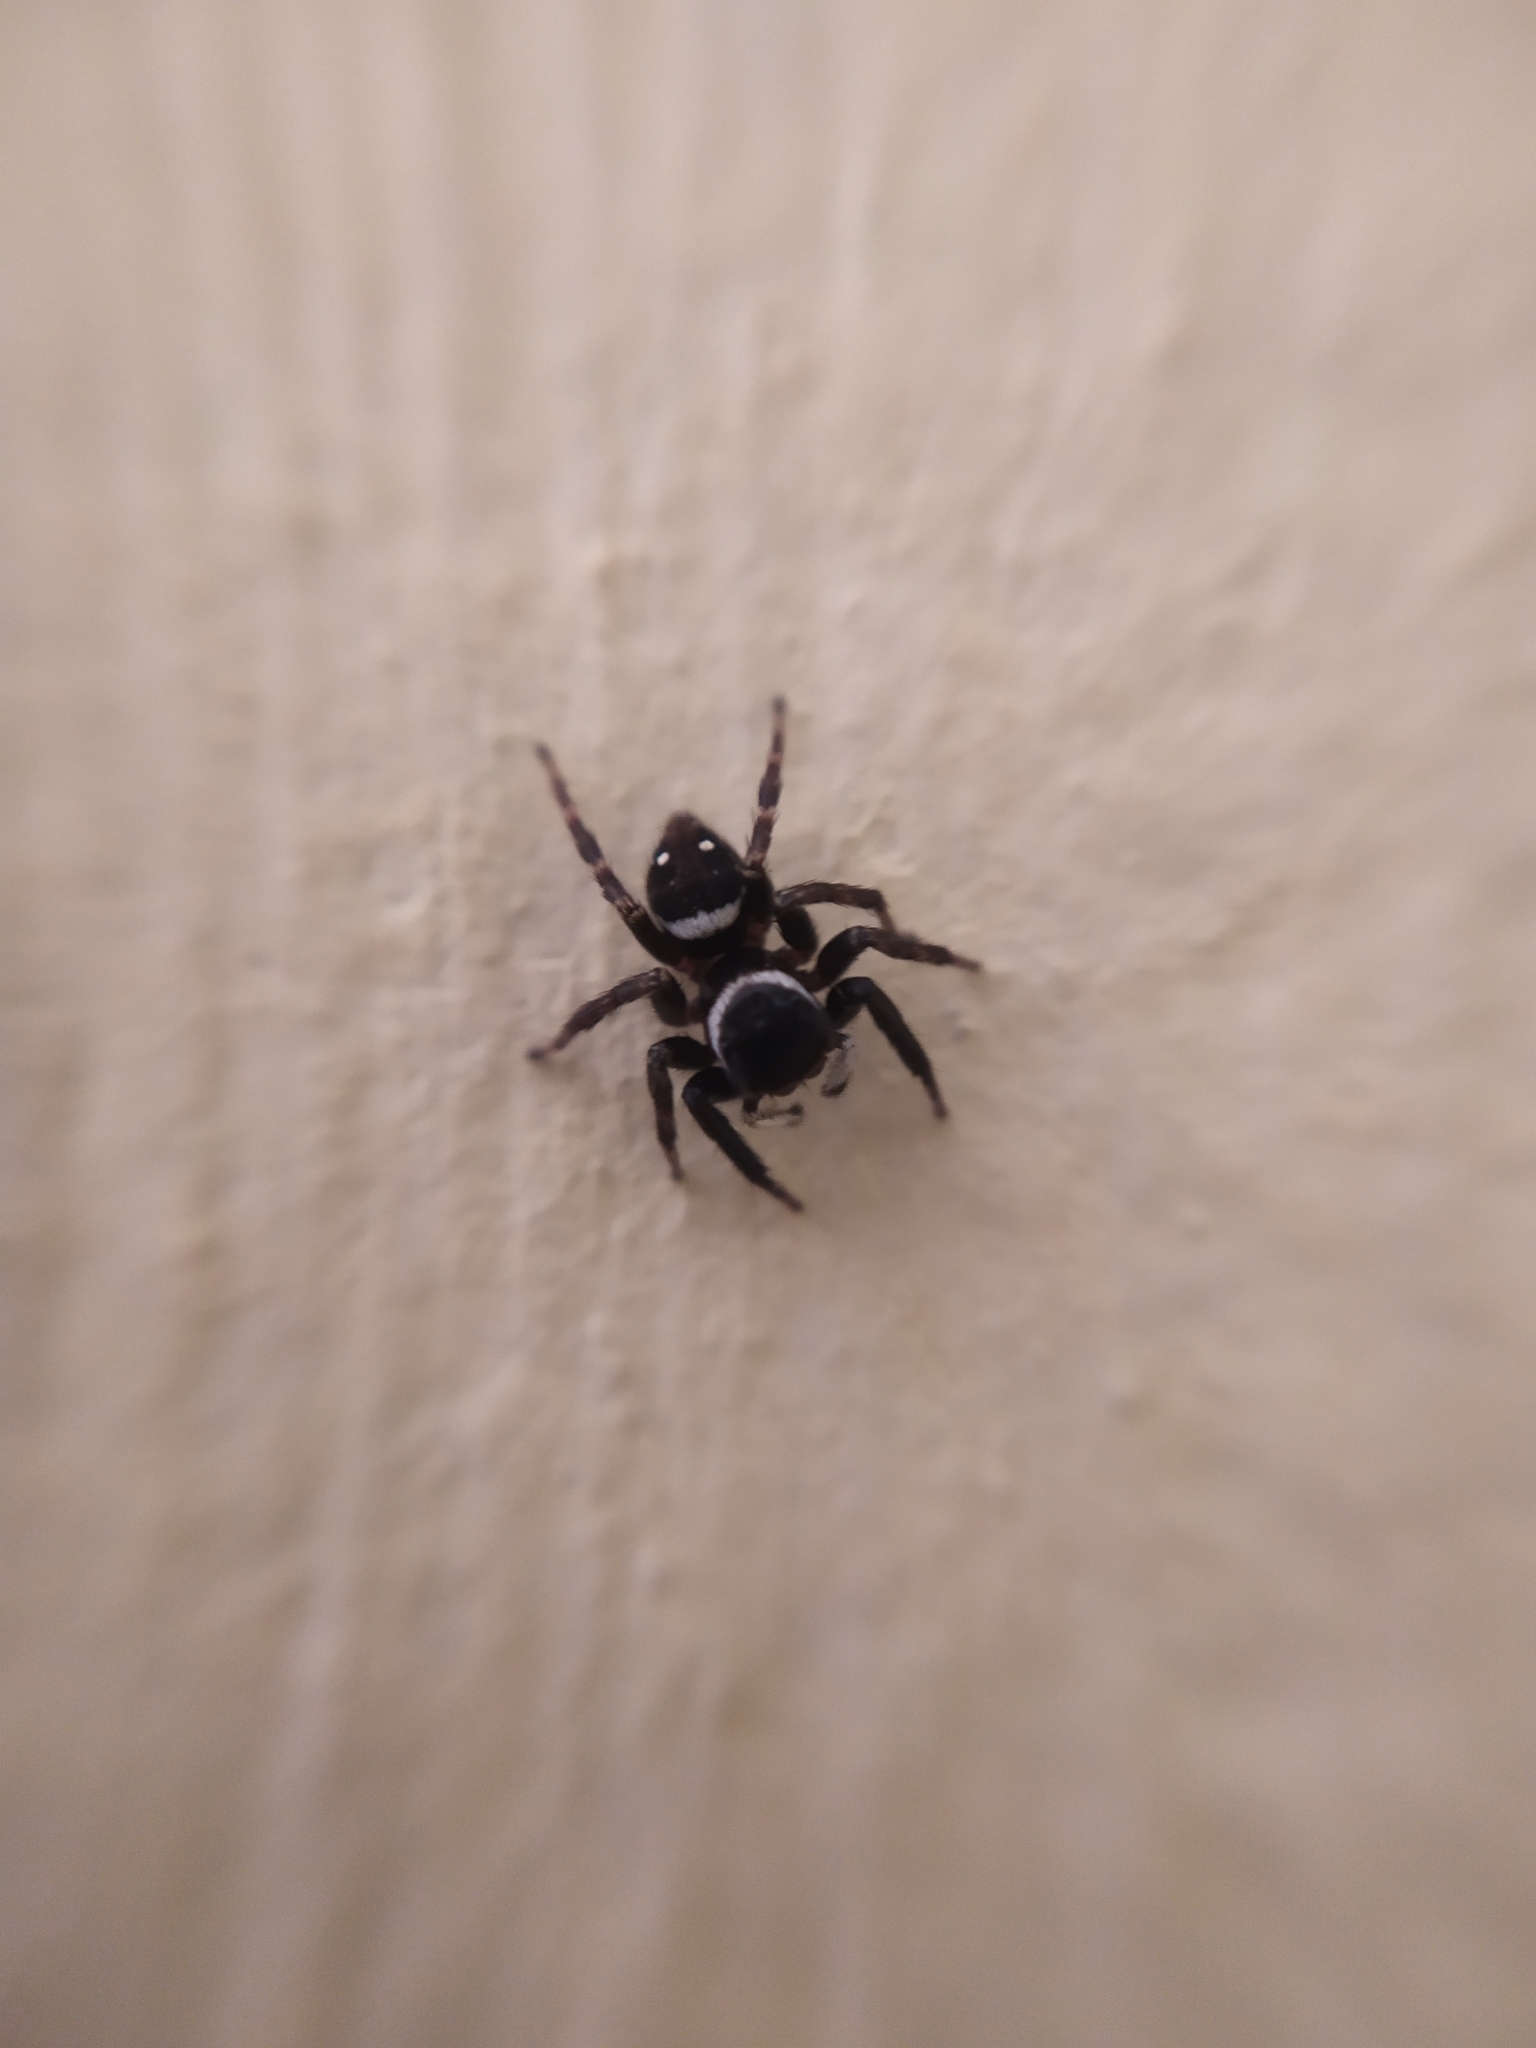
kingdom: Animalia
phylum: Arthropoda
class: Arachnida
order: Araneae
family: Salticidae
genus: Hasarius
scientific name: Hasarius adansoni
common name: Jumping spider
